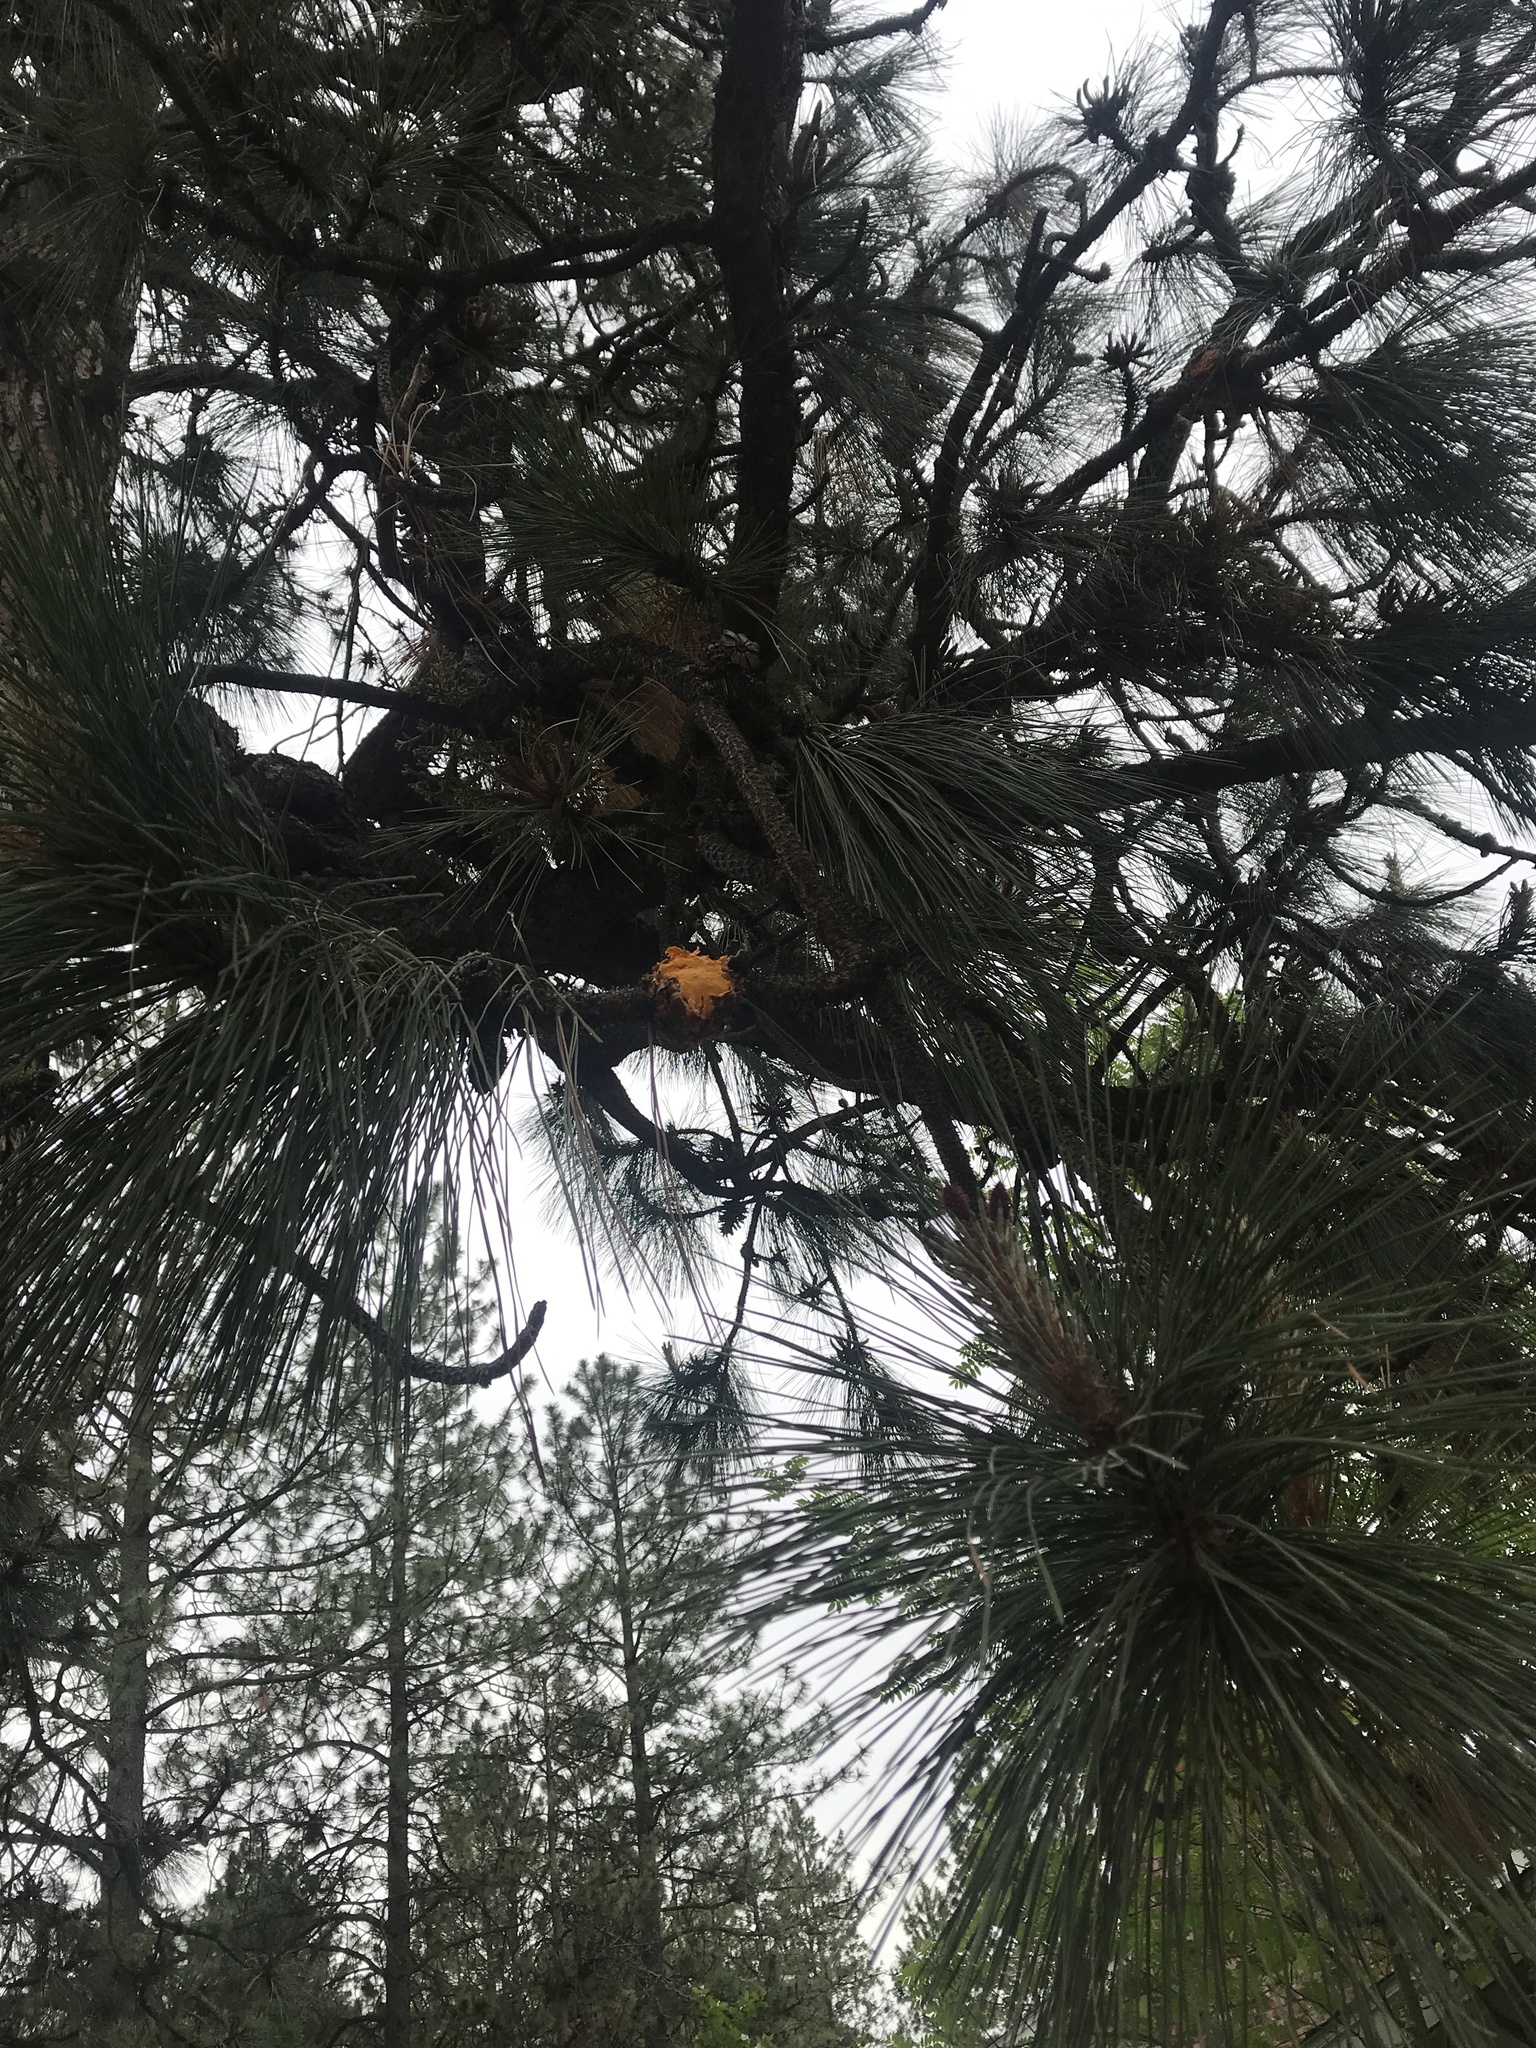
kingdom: Fungi
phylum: Basidiomycota
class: Pucciniomycetes
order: Pucciniales
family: Cronartiaceae
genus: Cronartium
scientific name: Cronartium harknessii
